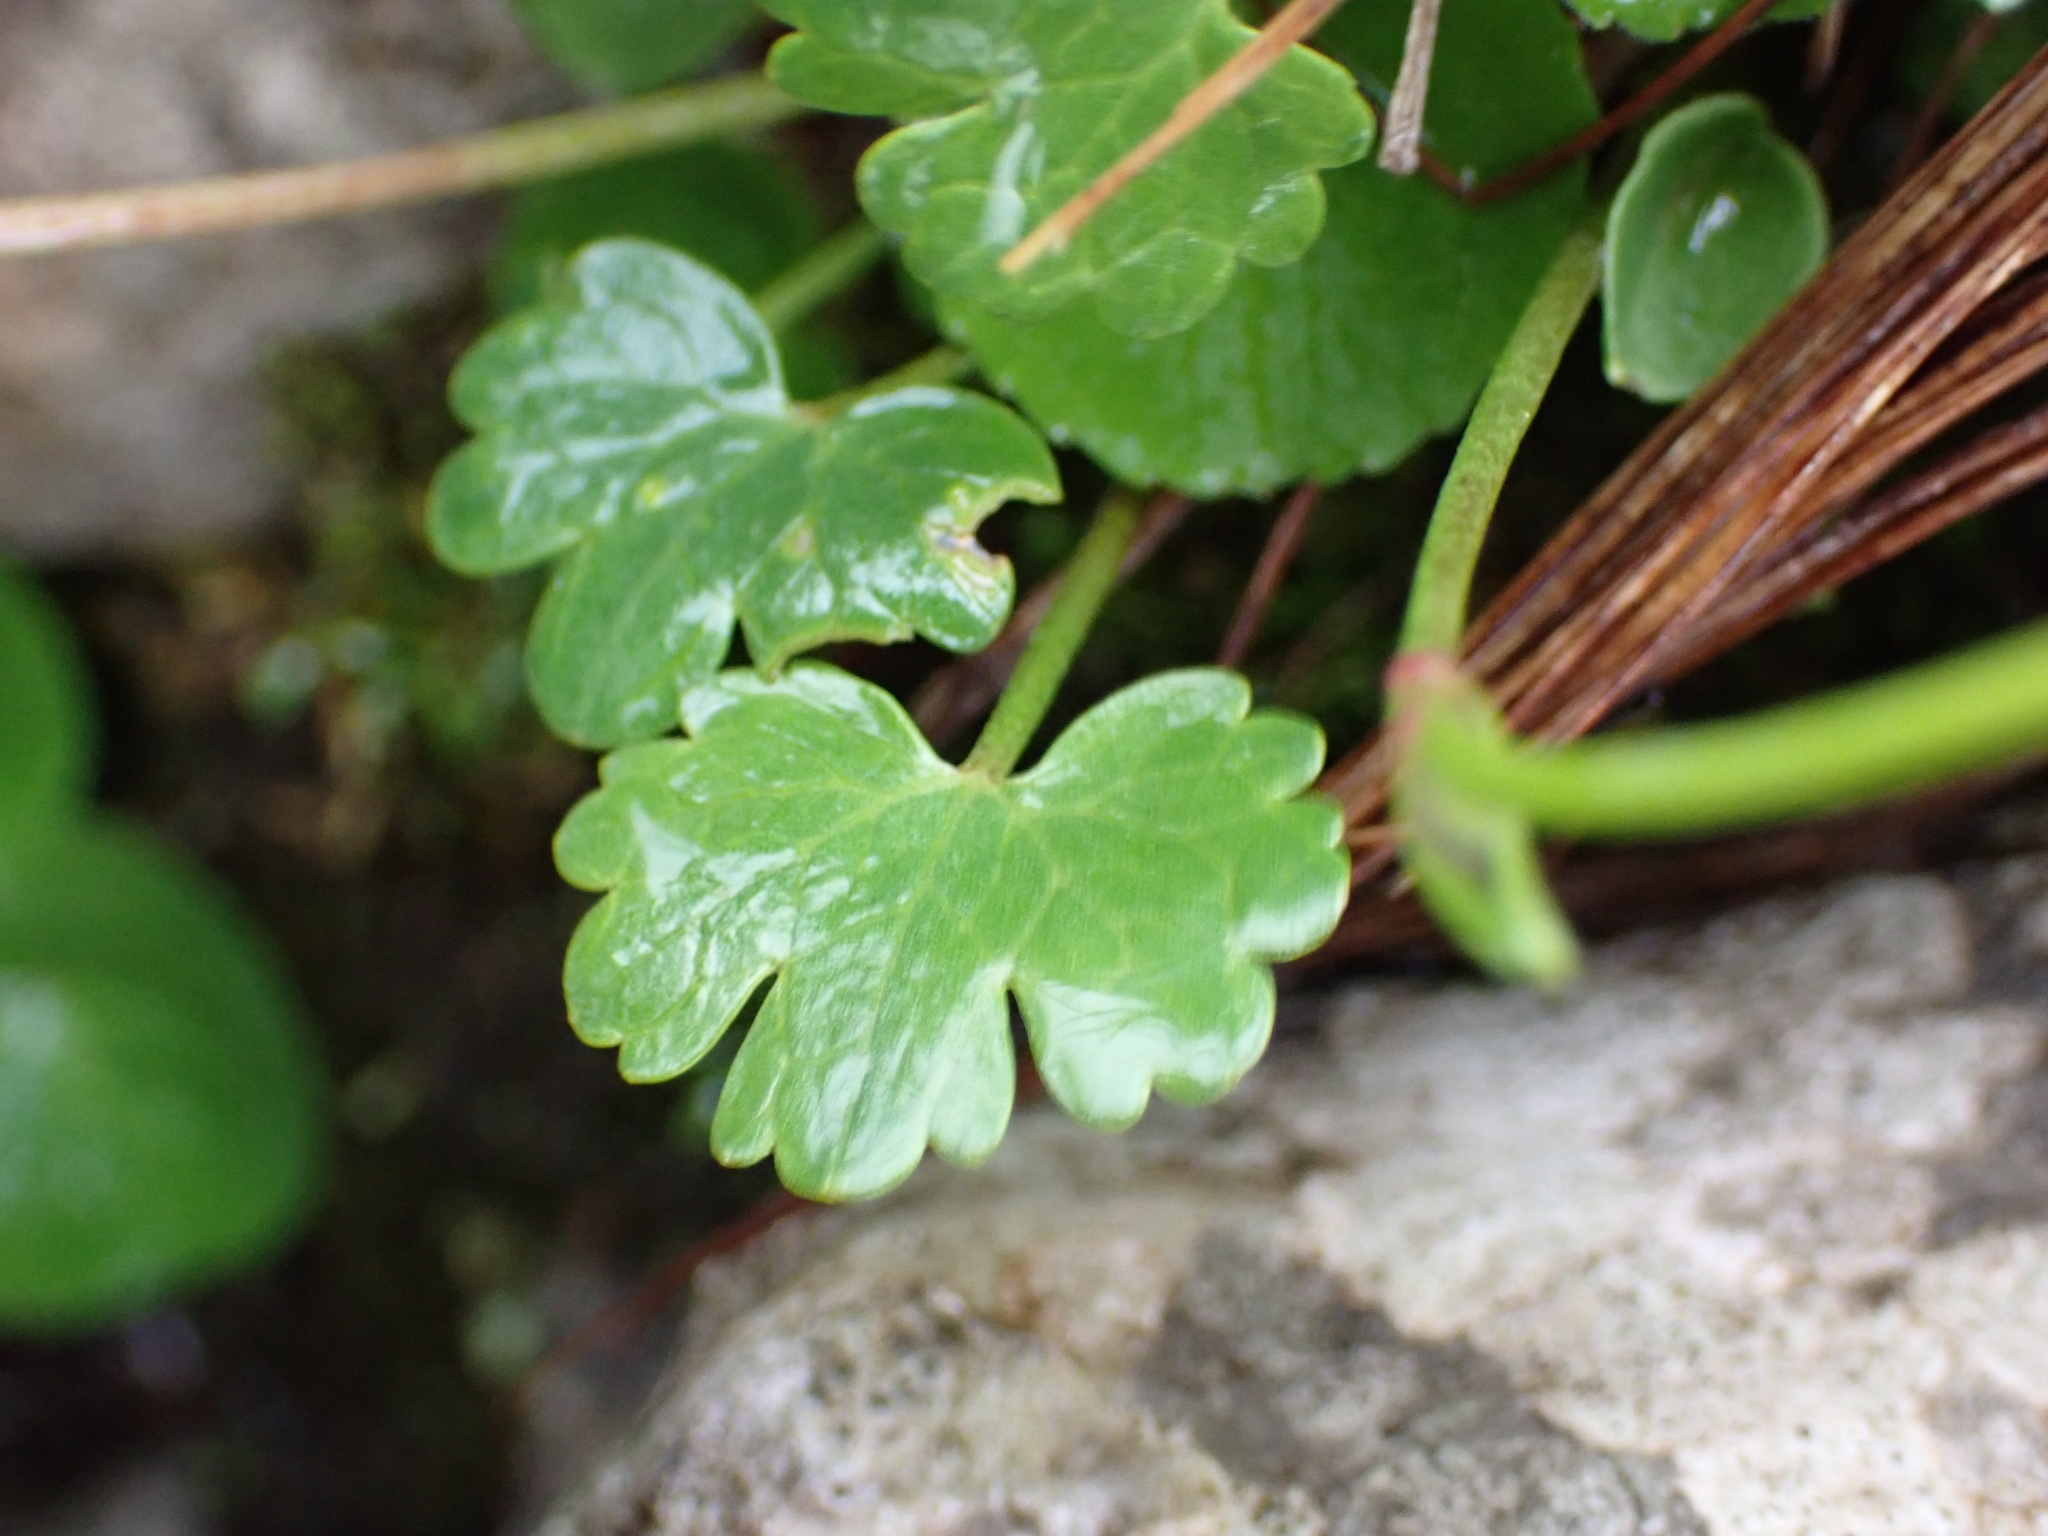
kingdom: Plantae
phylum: Tracheophyta
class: Magnoliopsida
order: Ranunculales
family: Ranunculaceae
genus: Ranunculus
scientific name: Ranunculus alpestris
